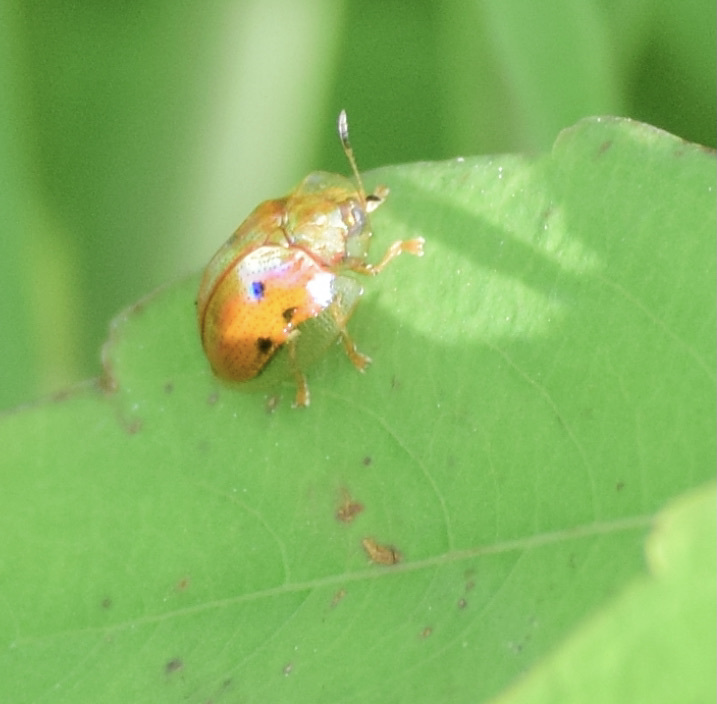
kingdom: Animalia
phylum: Arthropoda
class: Insecta
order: Coleoptera
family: Chrysomelidae
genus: Charidotella
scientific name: Charidotella sexpunctata
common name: Golden tortoise beetle
